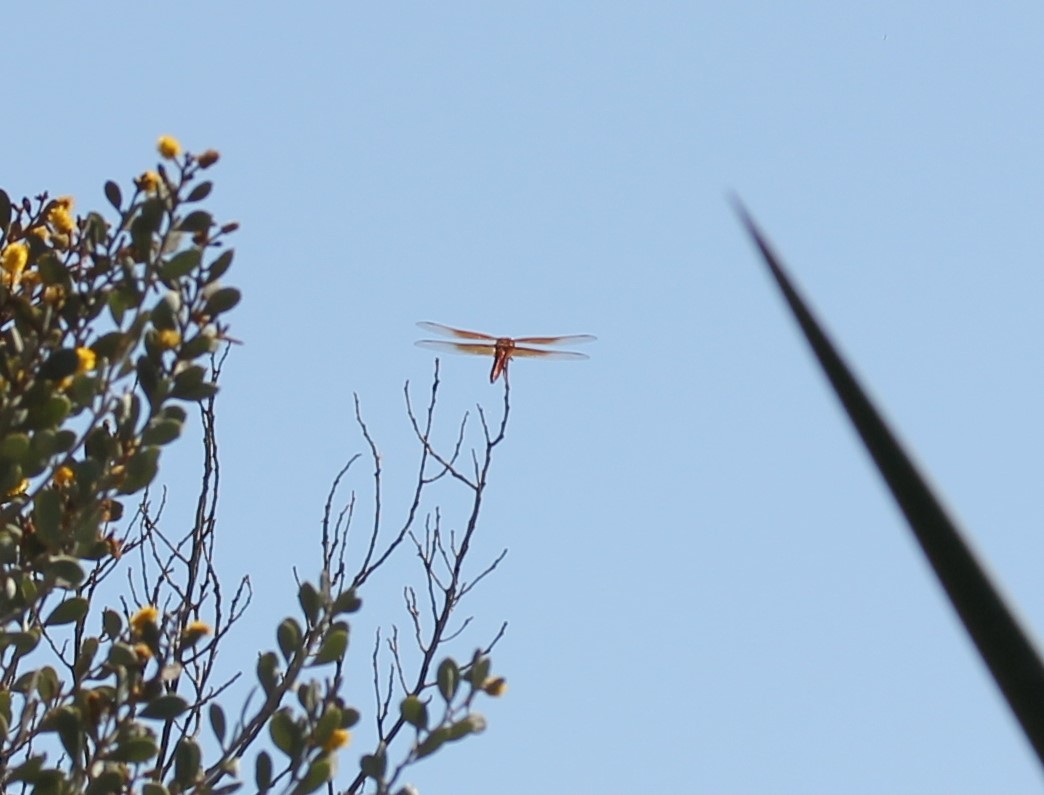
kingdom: Animalia
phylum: Arthropoda
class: Insecta
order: Odonata
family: Libellulidae
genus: Libellula
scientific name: Libellula saturata
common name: Flame skimmer
